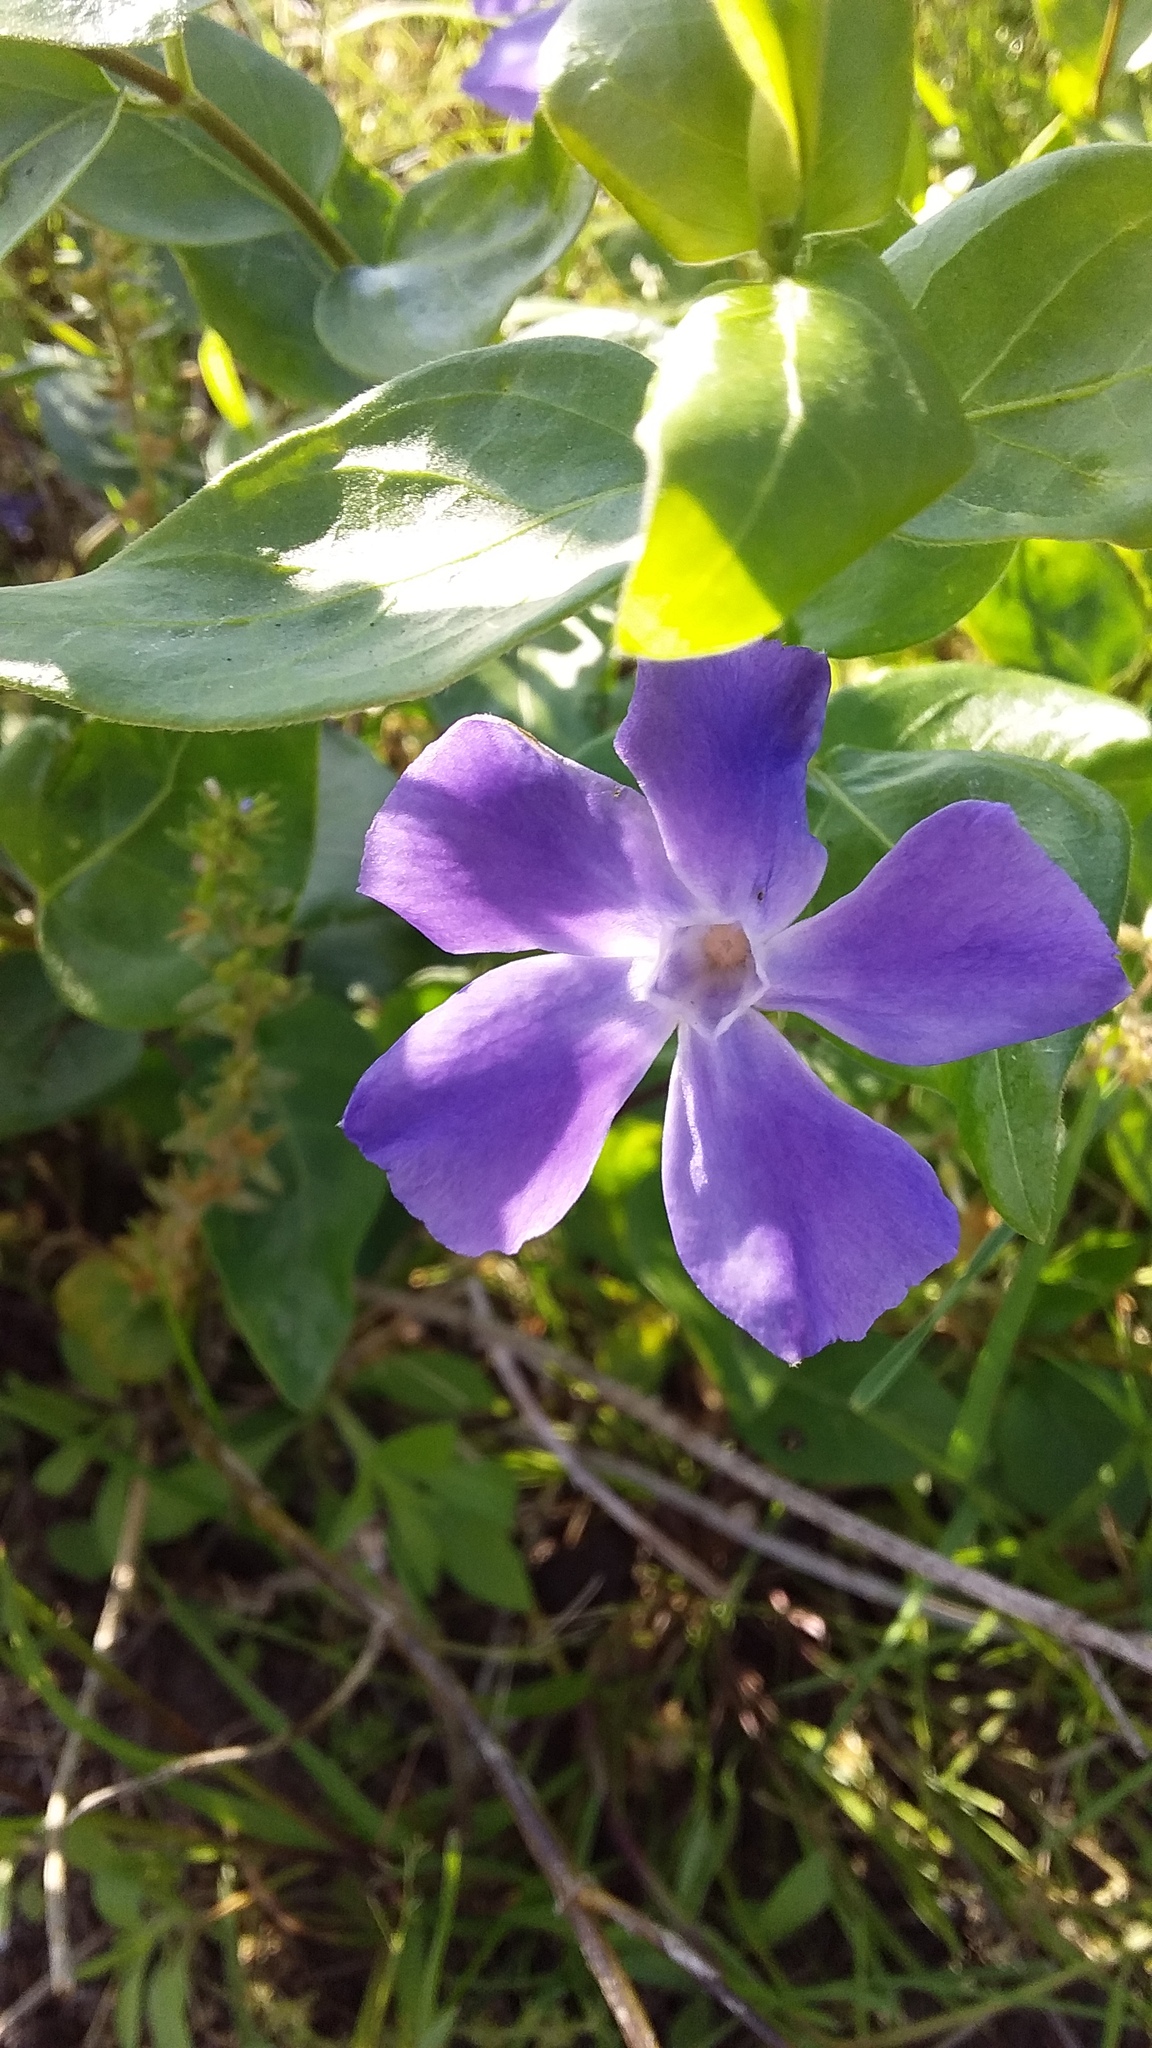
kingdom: Plantae
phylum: Tracheophyta
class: Magnoliopsida
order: Gentianales
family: Apocynaceae
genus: Vinca
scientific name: Vinca major
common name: Greater periwinkle
